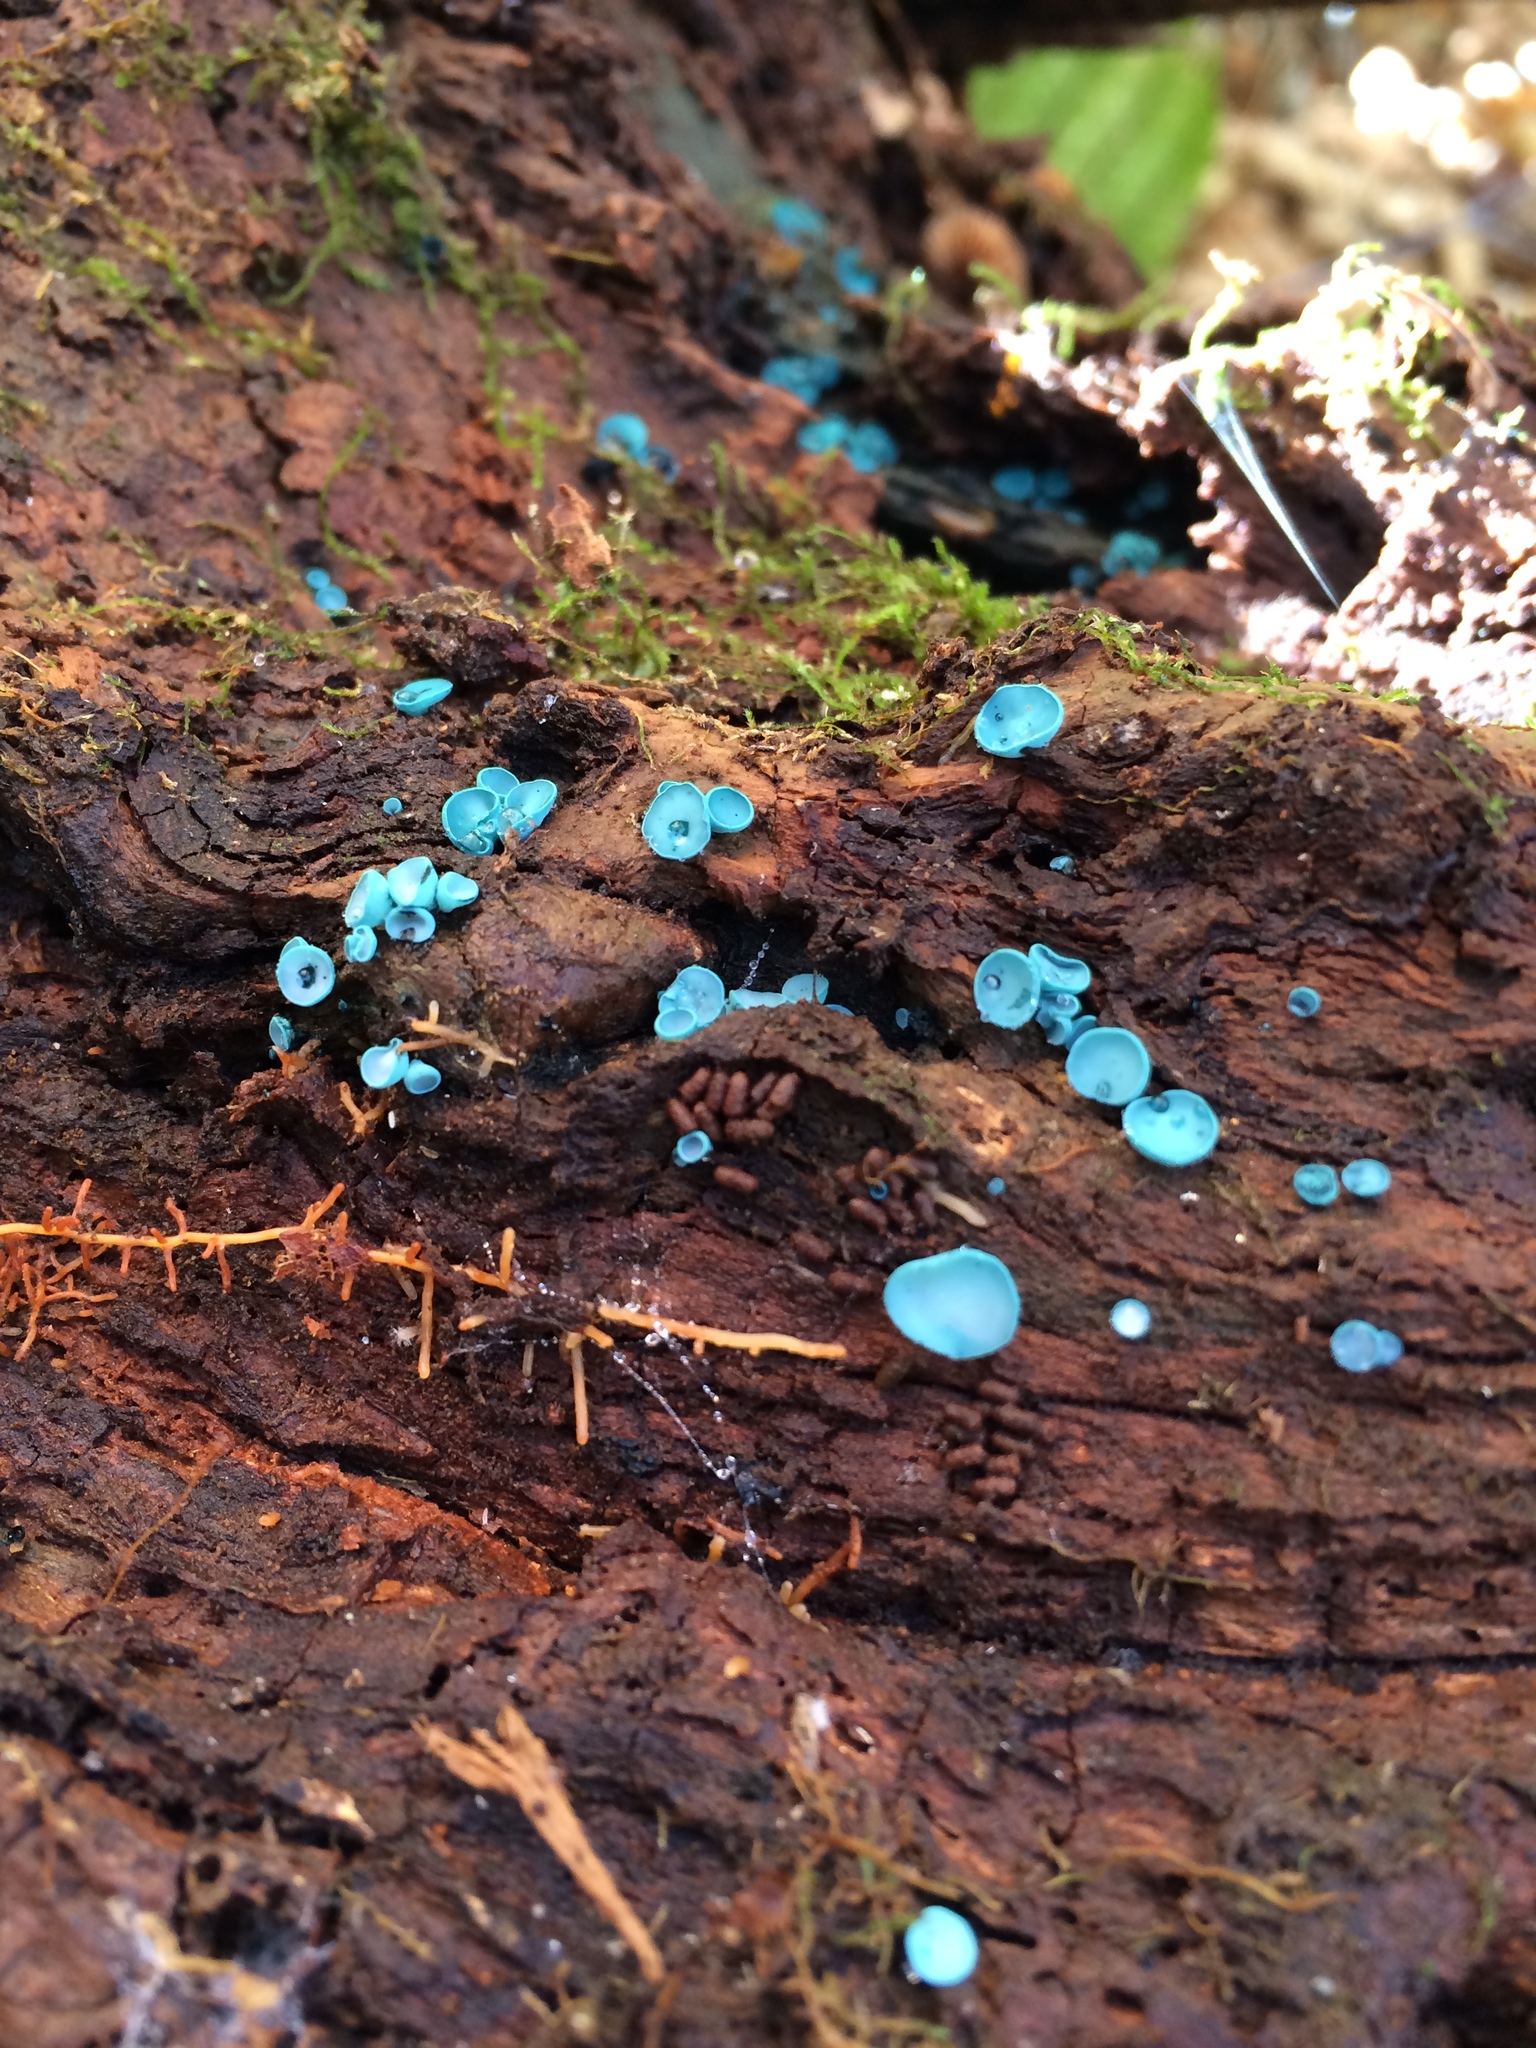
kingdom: Fungi
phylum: Ascomycota
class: Leotiomycetes
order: Helotiales
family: Chlorociboriaceae
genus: Chlorociboria
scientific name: Chlorociboria aeruginascens
